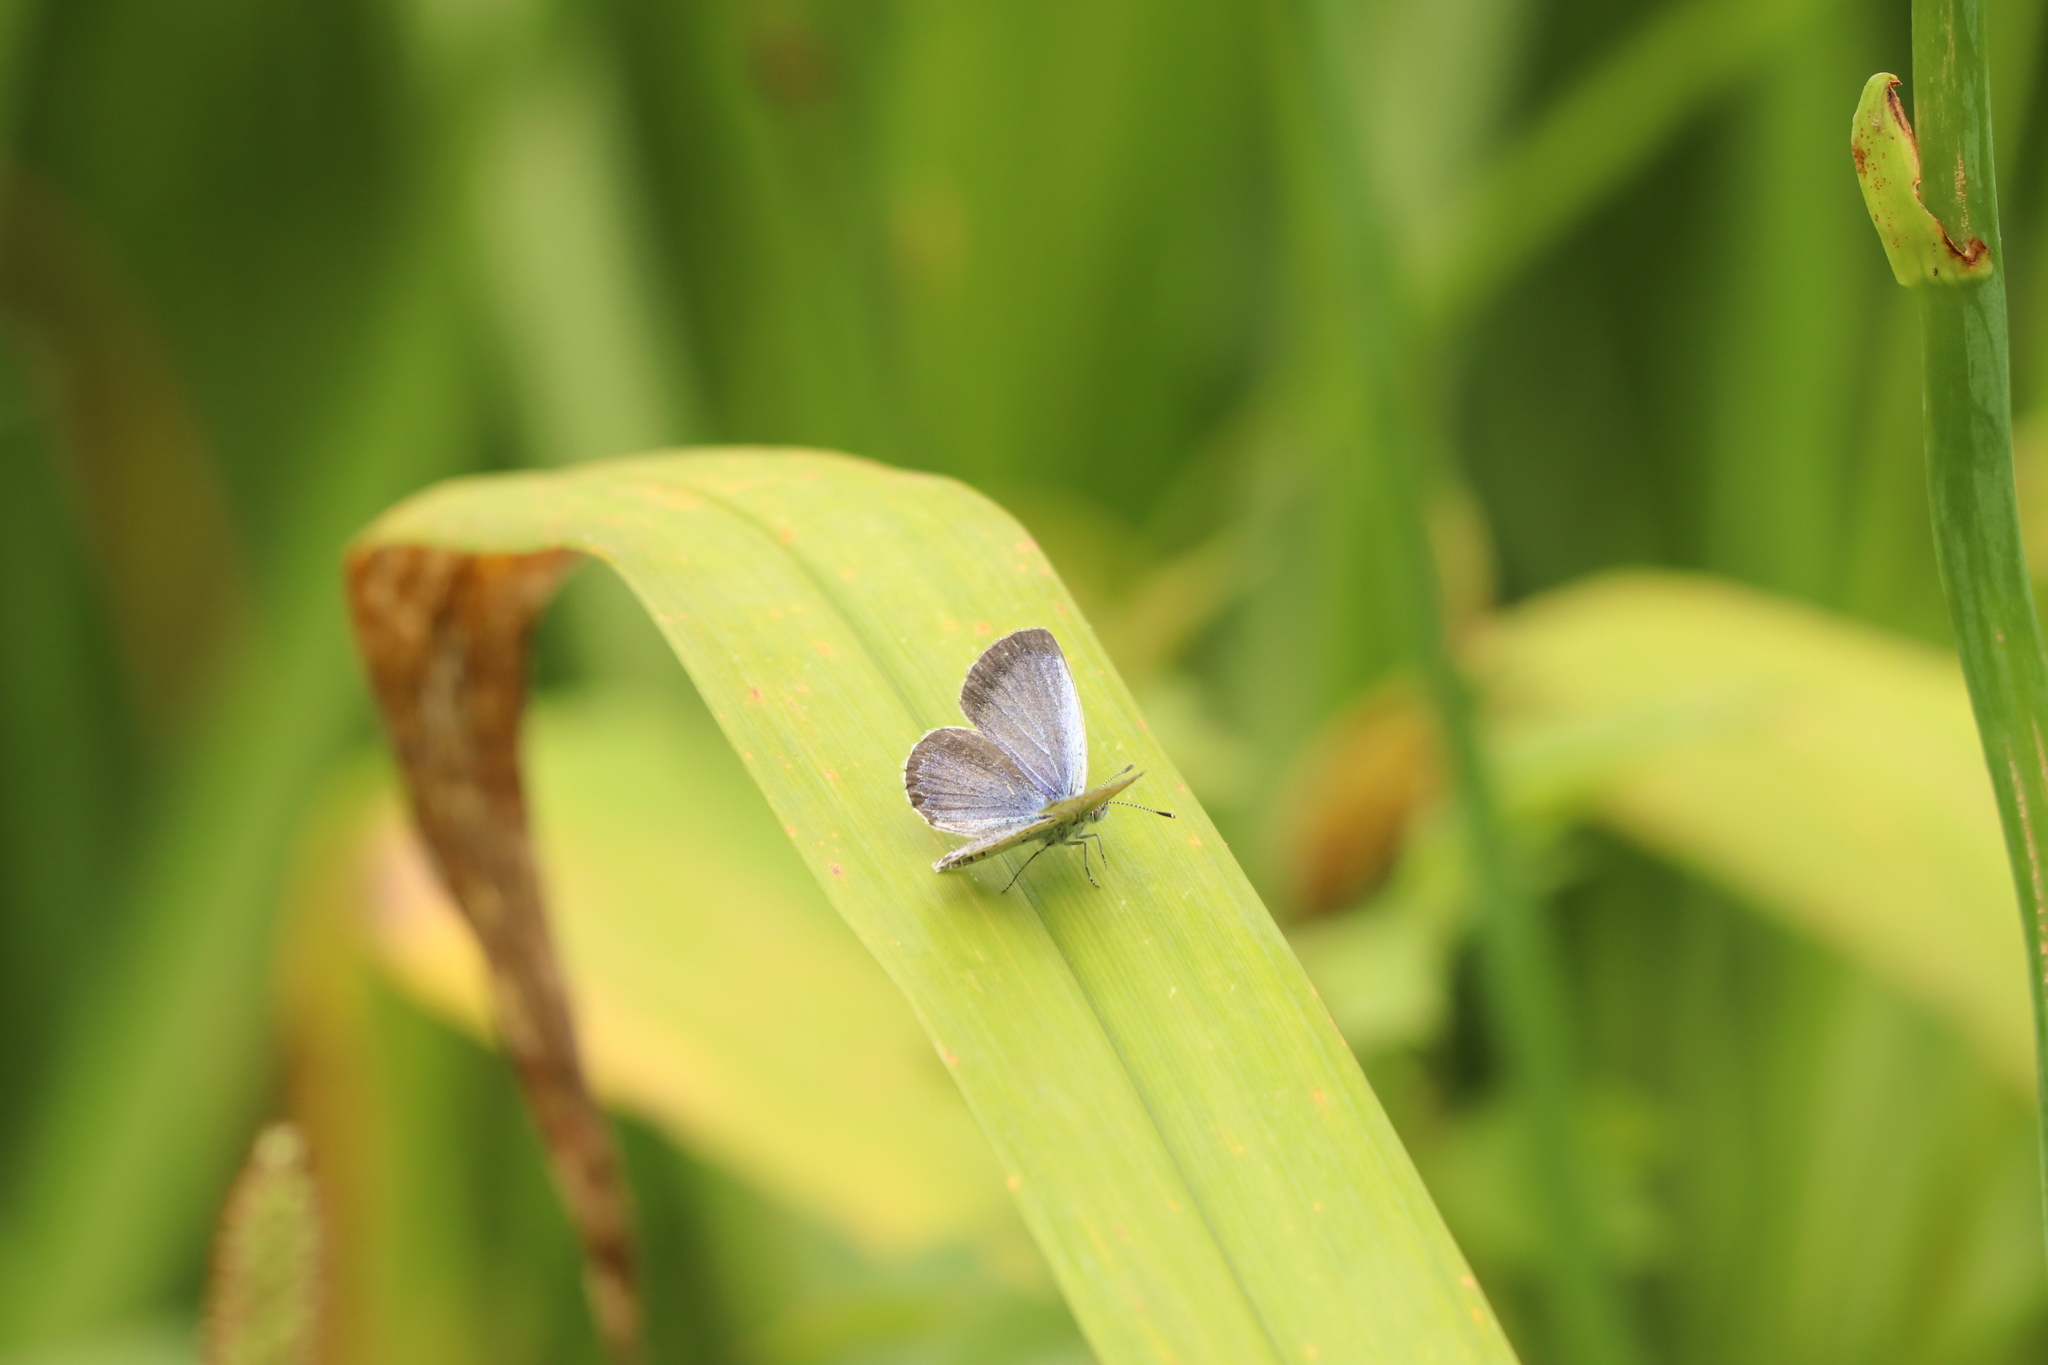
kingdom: Animalia
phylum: Arthropoda
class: Insecta
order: Lepidoptera
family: Lycaenidae
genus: Pseudozizeeria
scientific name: Pseudozizeeria maha
